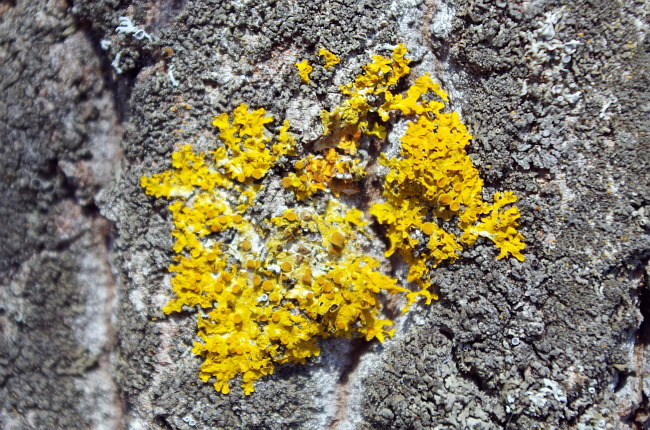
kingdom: Fungi
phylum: Ascomycota
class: Lecanoromycetes
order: Teloschistales
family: Teloschistaceae
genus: Xanthoria
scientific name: Xanthoria parietina
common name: Common orange lichen
